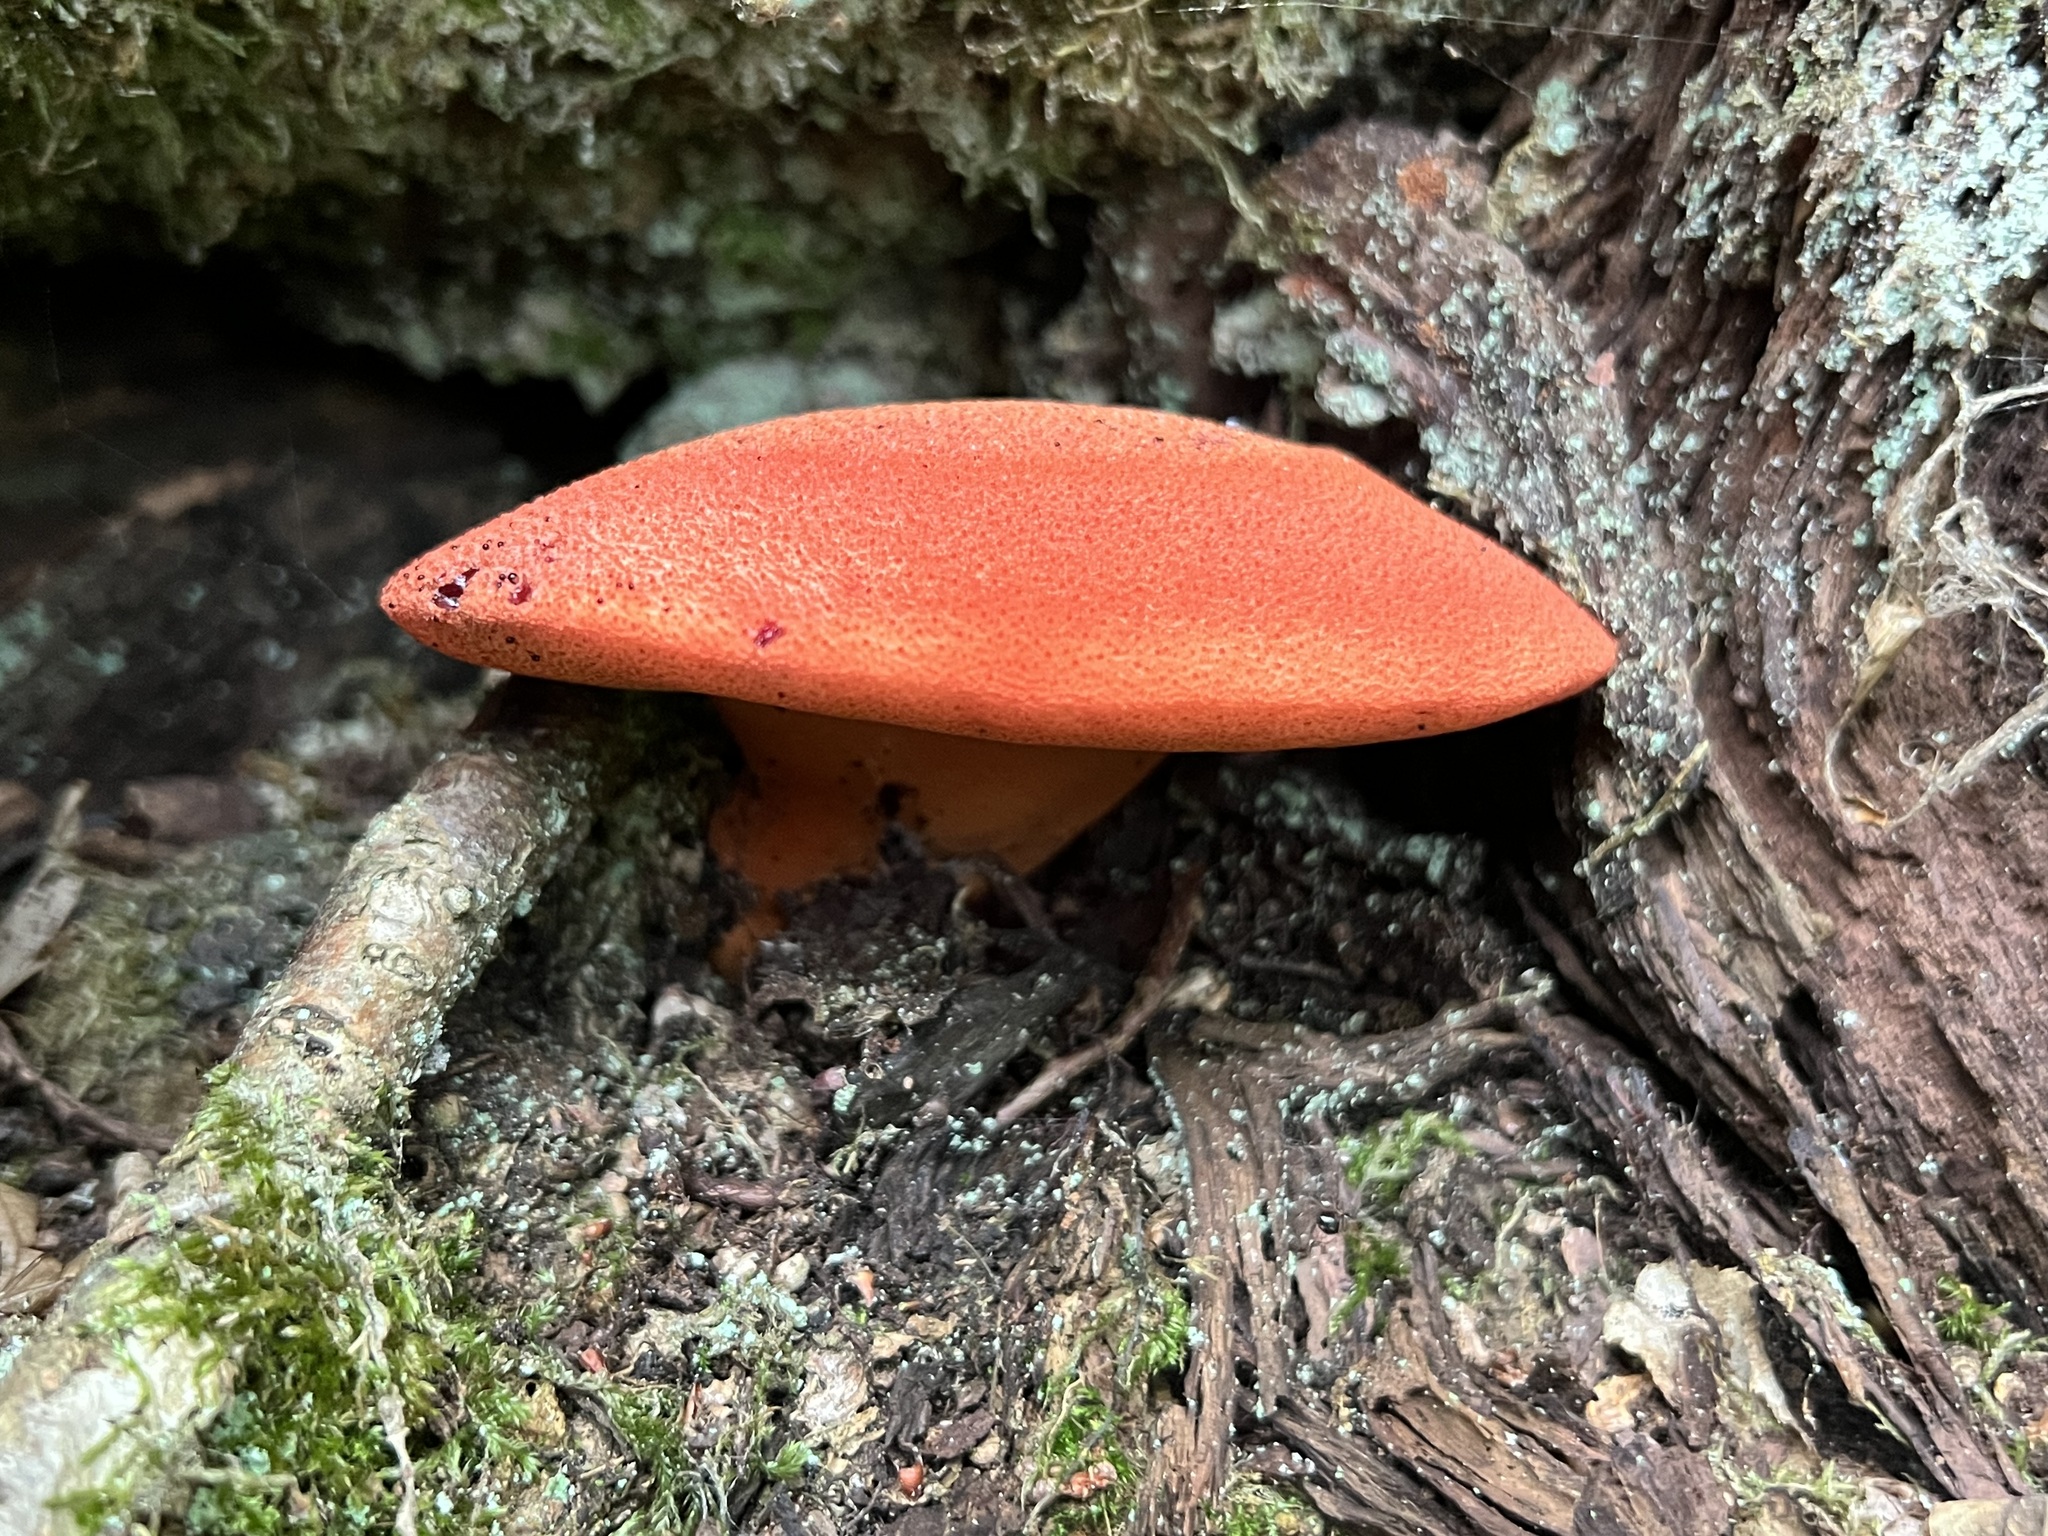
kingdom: Fungi
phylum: Basidiomycota
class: Agaricomycetes
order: Agaricales
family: Fistulinaceae
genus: Fistulina
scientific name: Fistulina hepatica
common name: Beef-steak fungus
